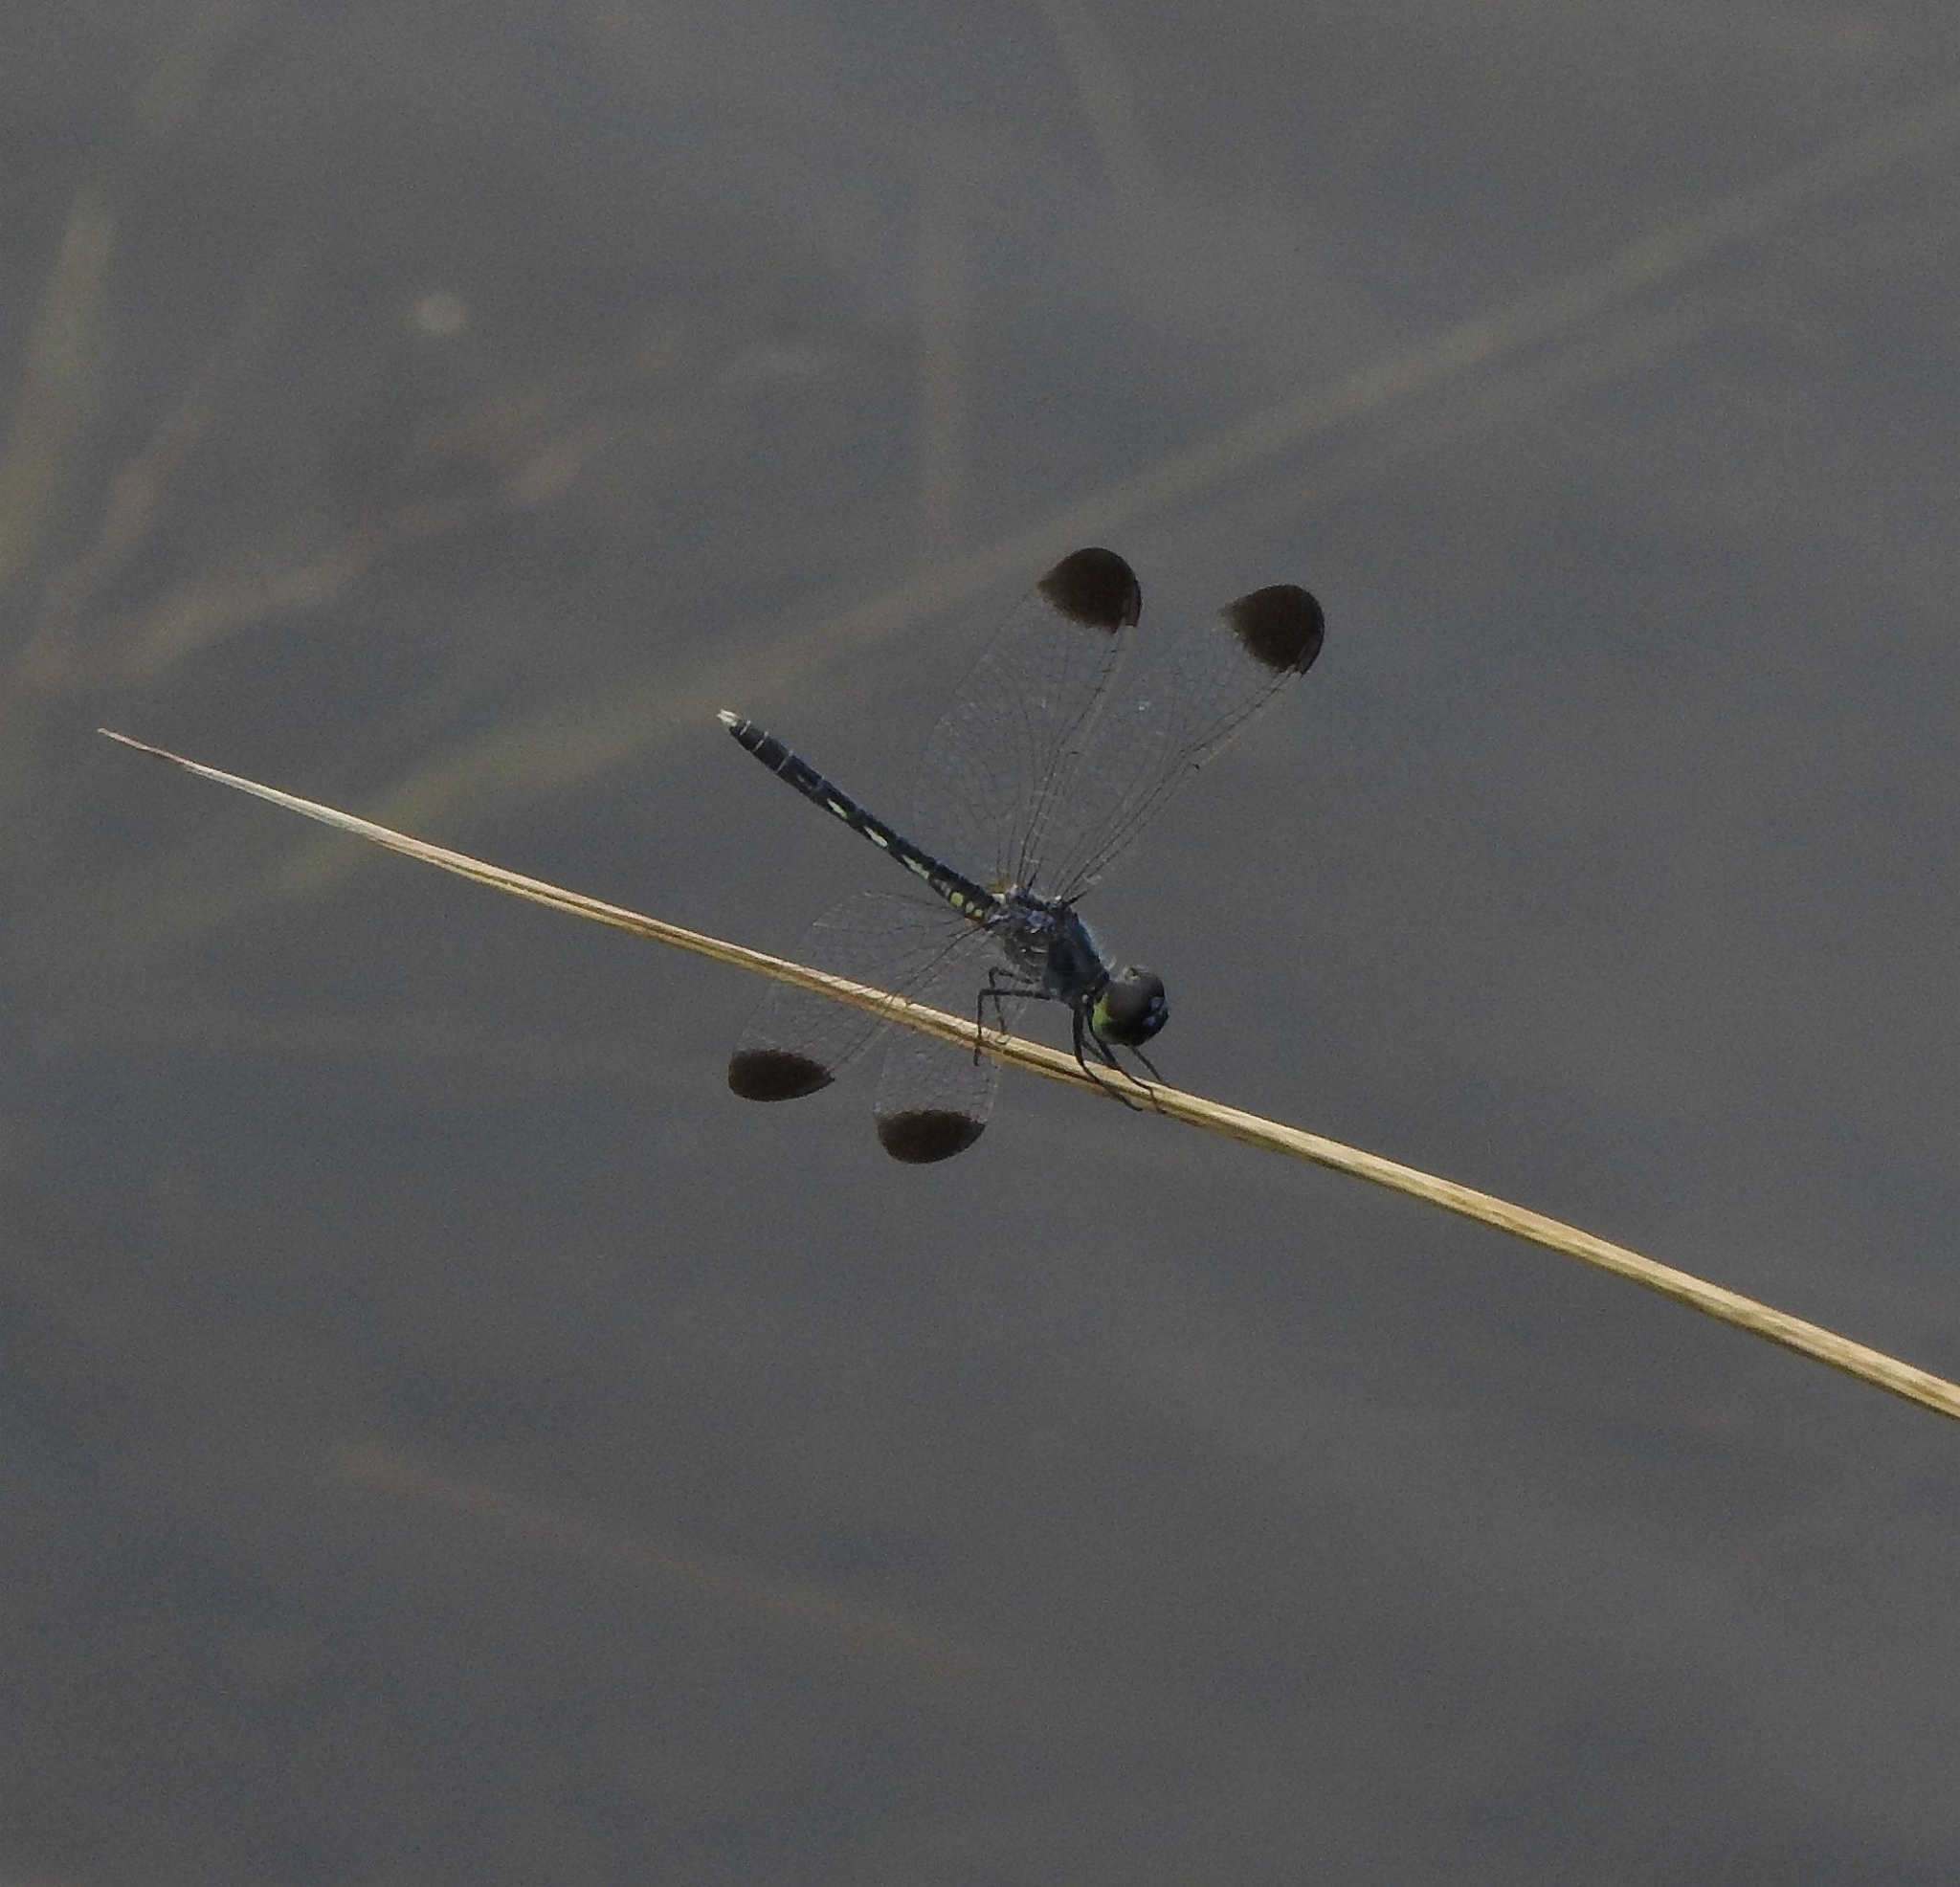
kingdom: Animalia
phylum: Arthropoda
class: Insecta
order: Odonata
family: Libellulidae
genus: Diplacodes
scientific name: Diplacodes nebulosa
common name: Black-tipped percher
